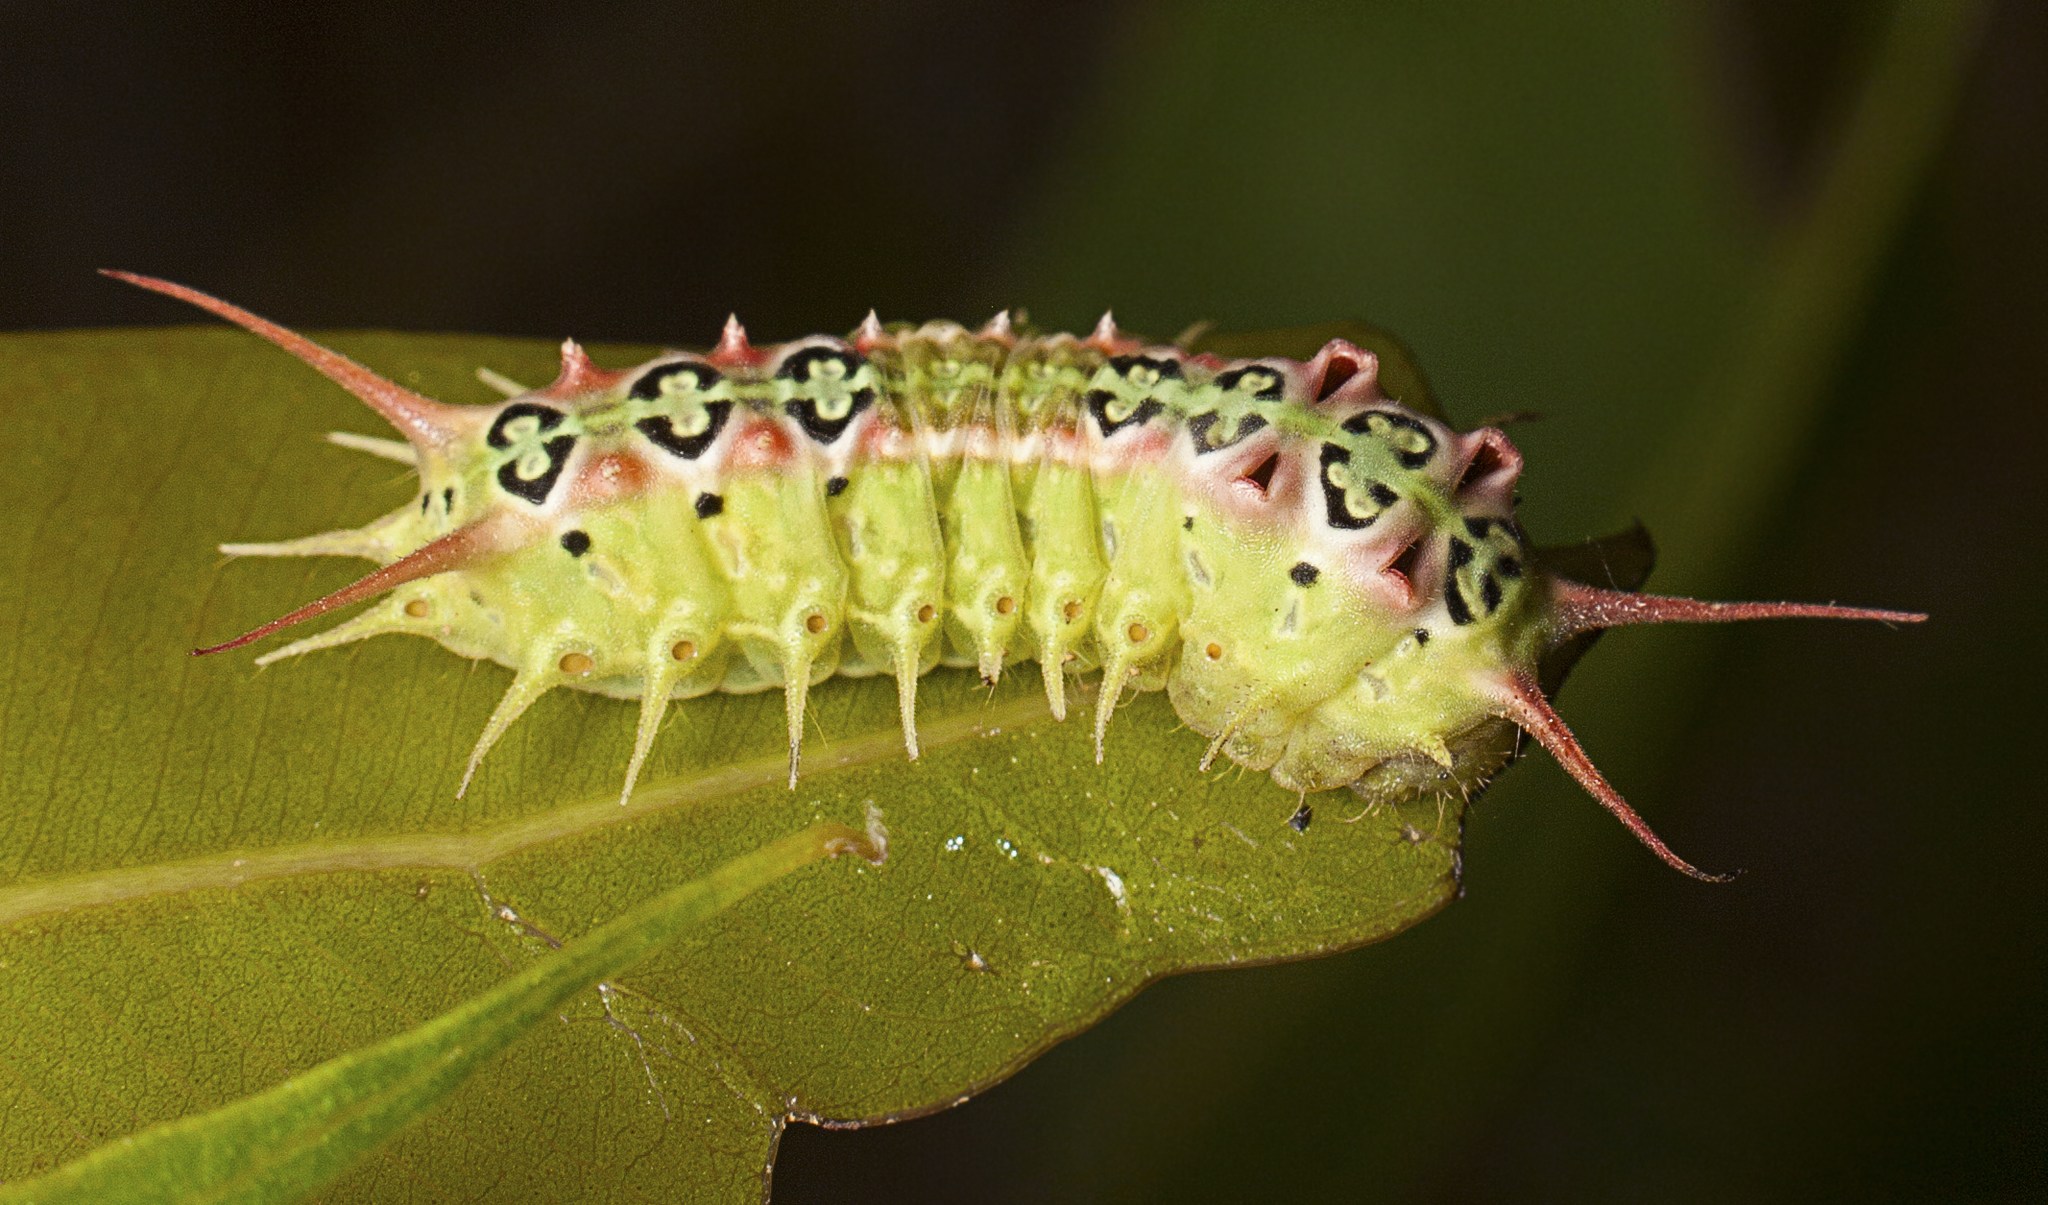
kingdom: Animalia
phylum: Arthropoda
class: Insecta
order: Lepidoptera
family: Limacodidae
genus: Doratifera
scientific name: Doratifera quadriguttata
